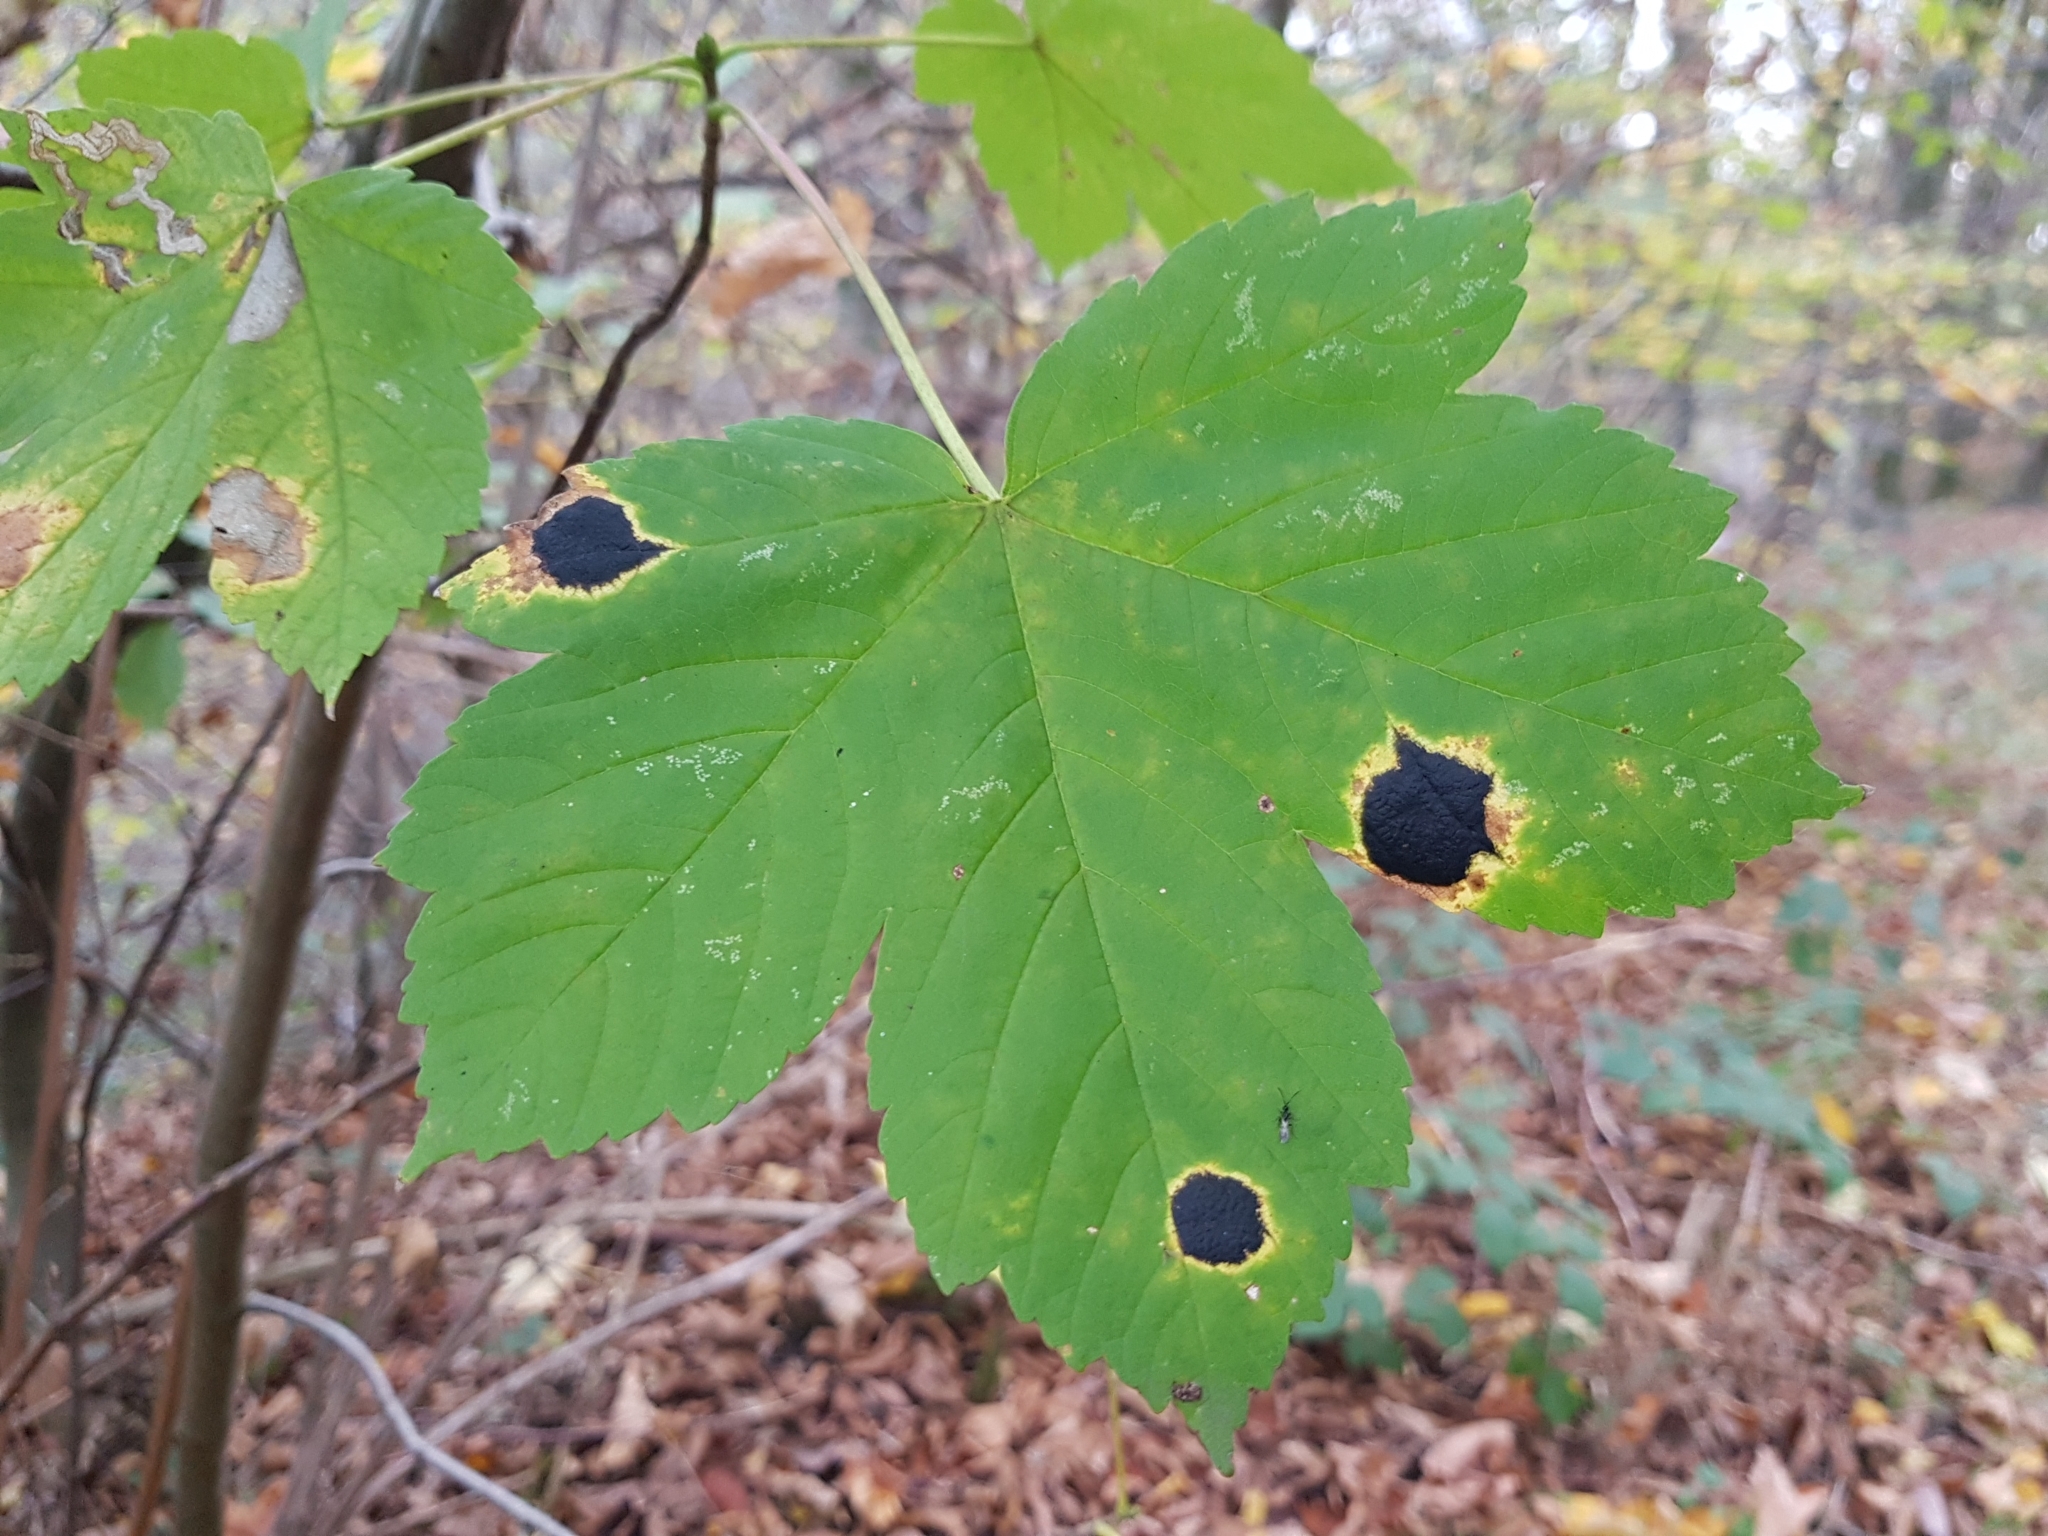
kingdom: Fungi
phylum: Ascomycota
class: Leotiomycetes
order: Rhytismatales
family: Rhytismataceae
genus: Rhytisma
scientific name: Rhytisma acerinum
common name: European tar spot
